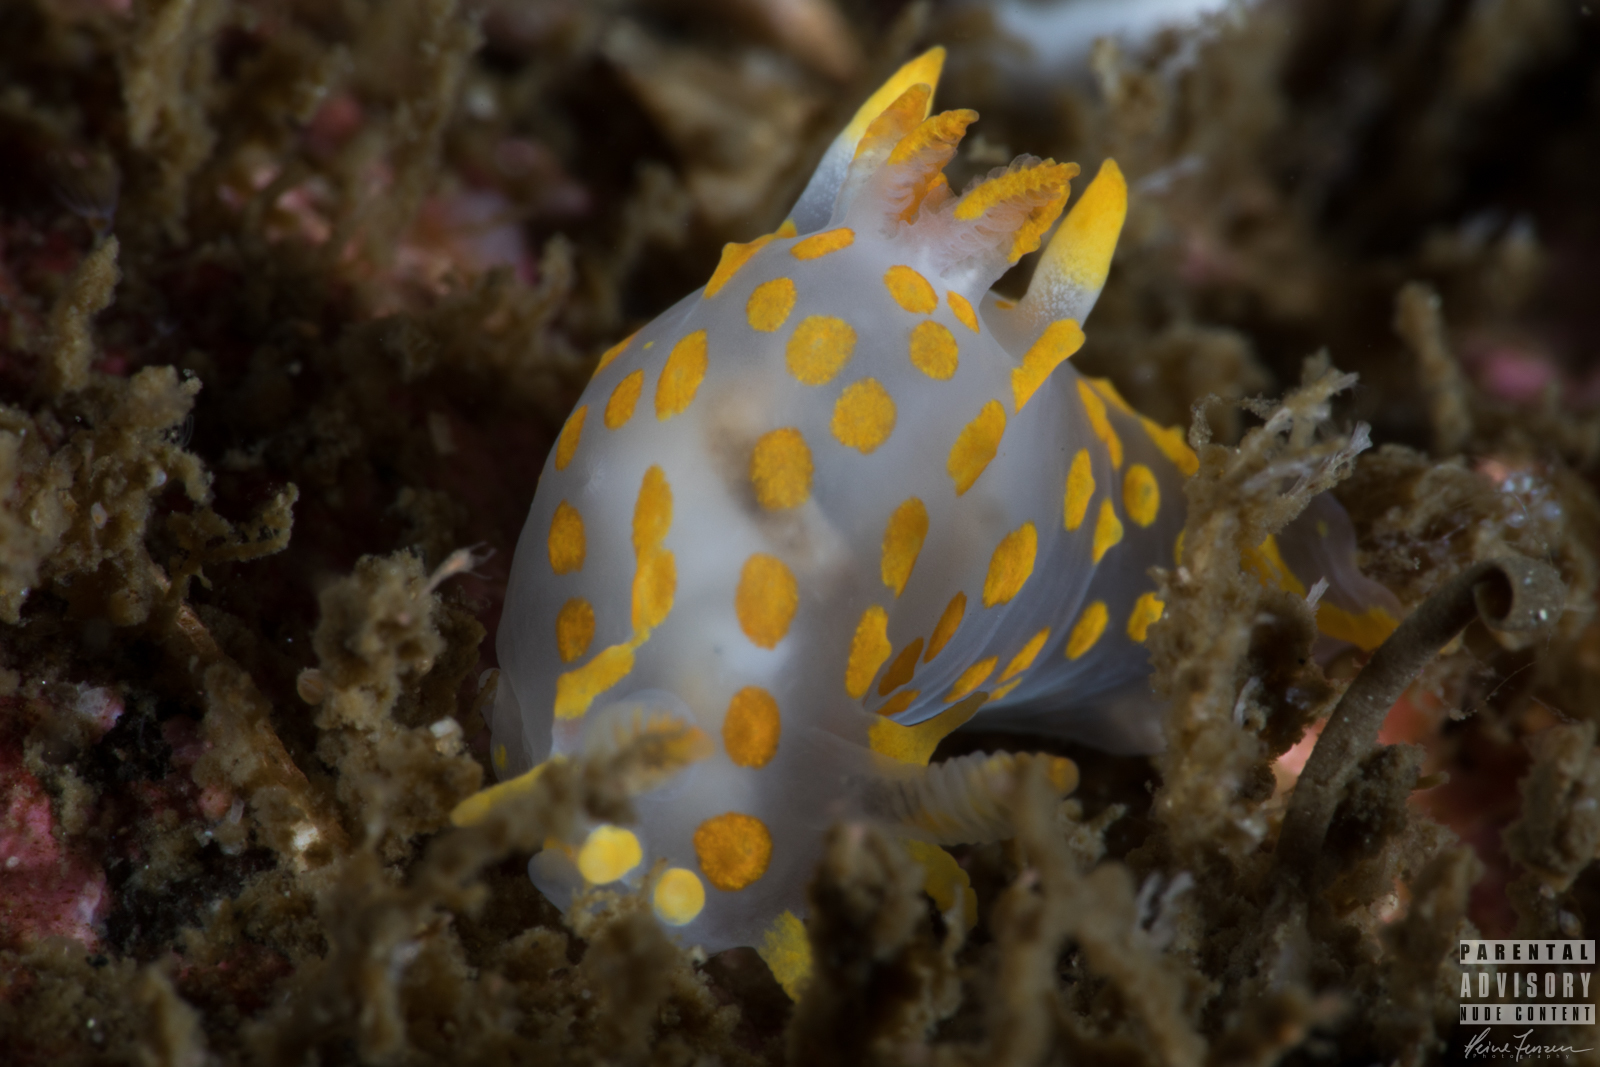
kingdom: Animalia
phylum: Mollusca
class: Gastropoda
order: Nudibranchia
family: Polyceridae
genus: Polycera
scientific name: Polycera quadrilineata
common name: Four-striped polycera
